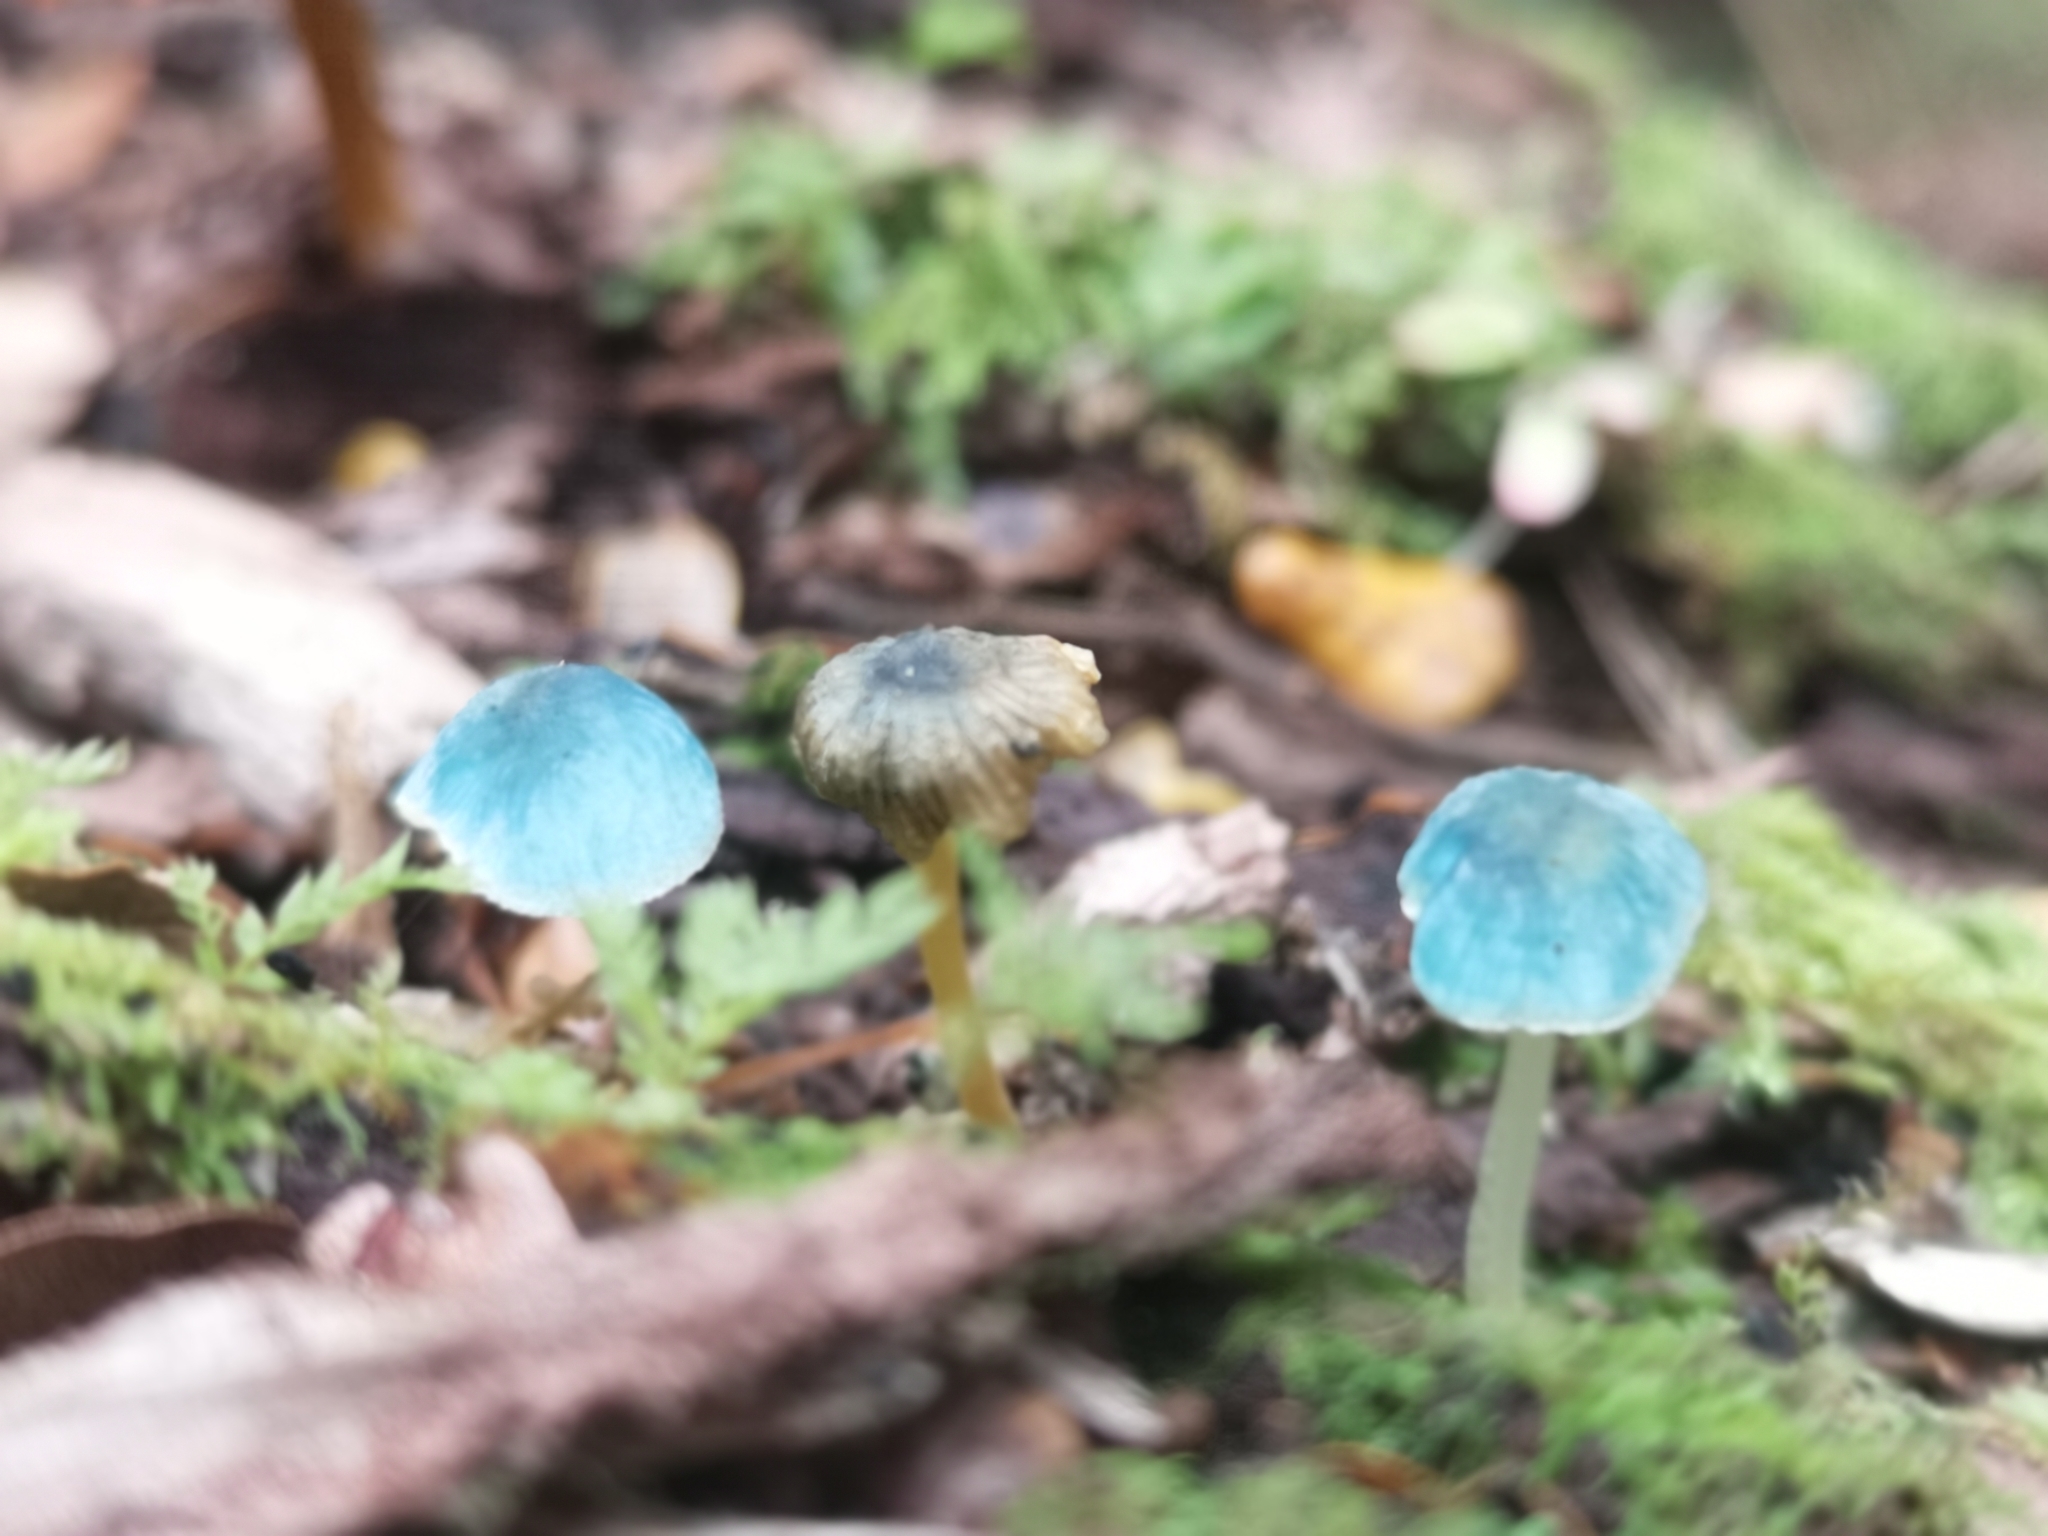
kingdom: Fungi
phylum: Basidiomycota
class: Agaricomycetes
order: Agaricales
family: Mycenaceae
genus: Mycena
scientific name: Mycena interrupta
